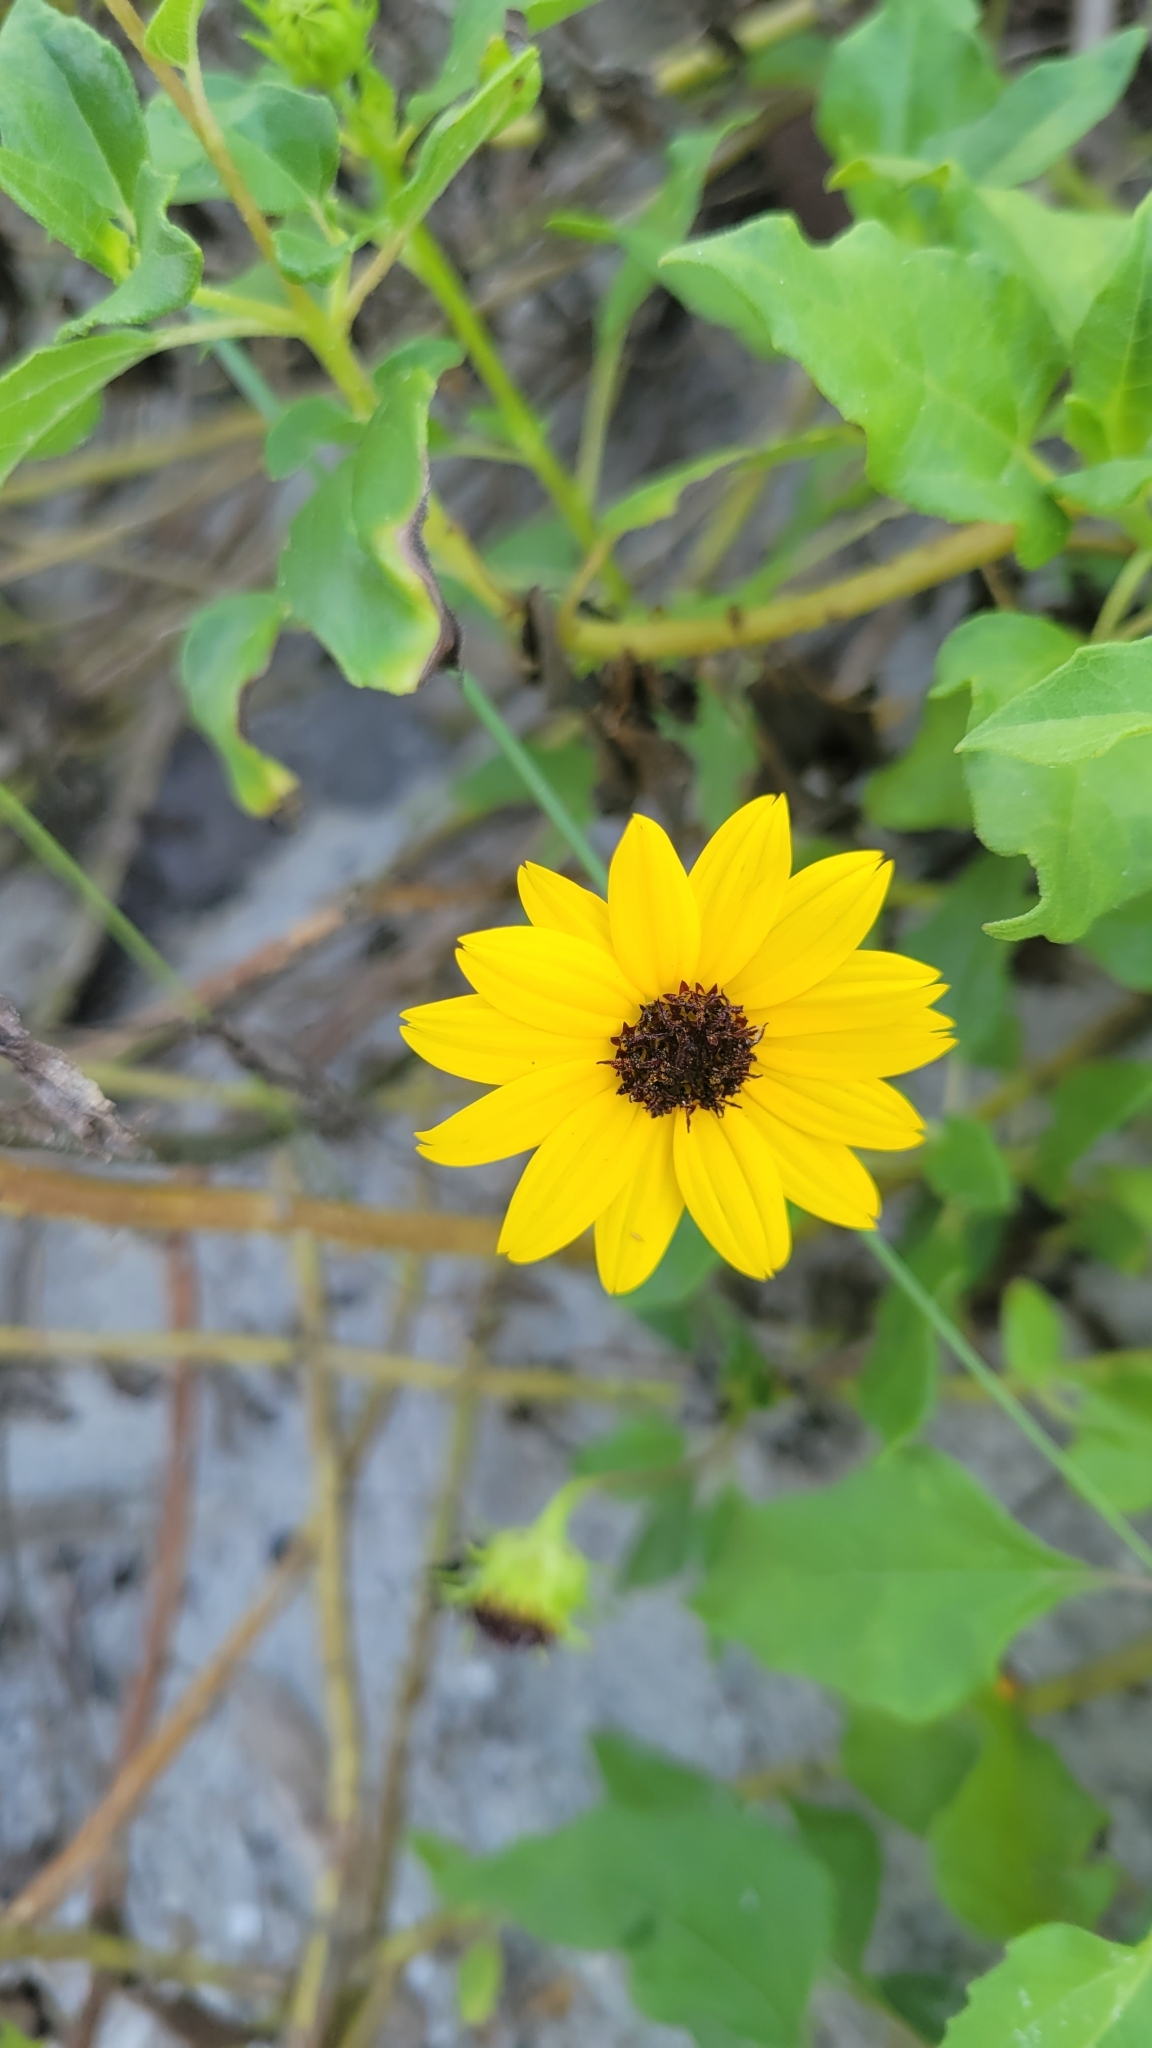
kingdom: Plantae
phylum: Tracheophyta
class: Magnoliopsida
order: Asterales
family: Asteraceae
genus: Helianthus
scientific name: Helianthus debilis
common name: Weak sunflower
